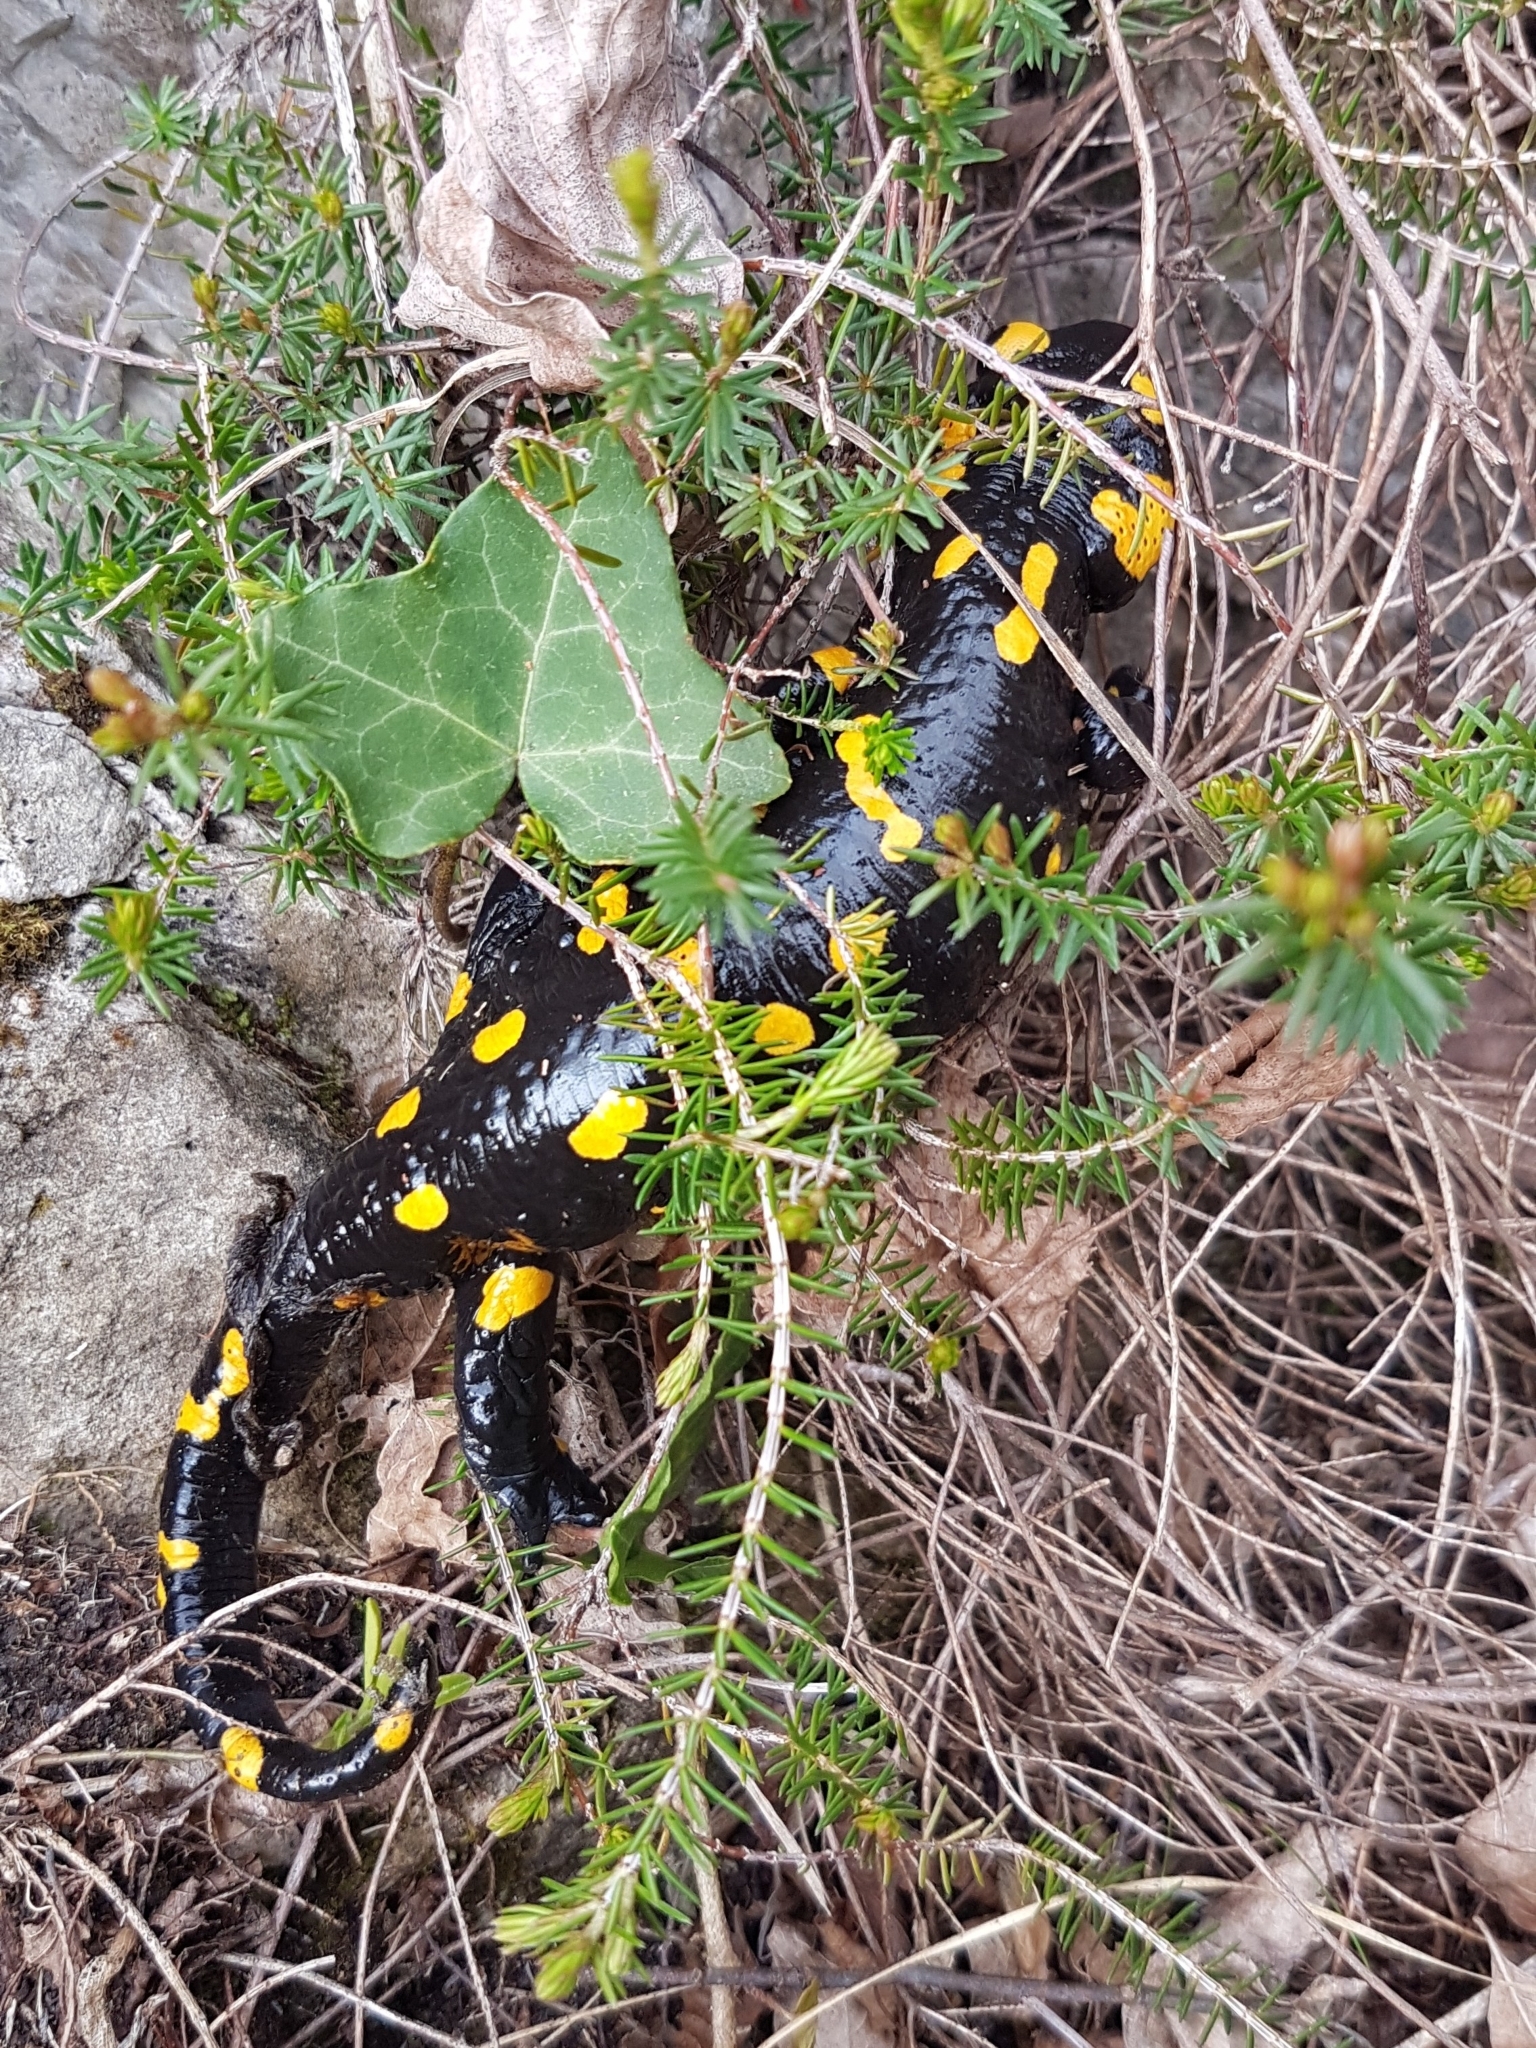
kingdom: Animalia
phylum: Chordata
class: Amphibia
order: Caudata
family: Salamandridae
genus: Salamandra
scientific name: Salamandra salamandra
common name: Fire salamander
